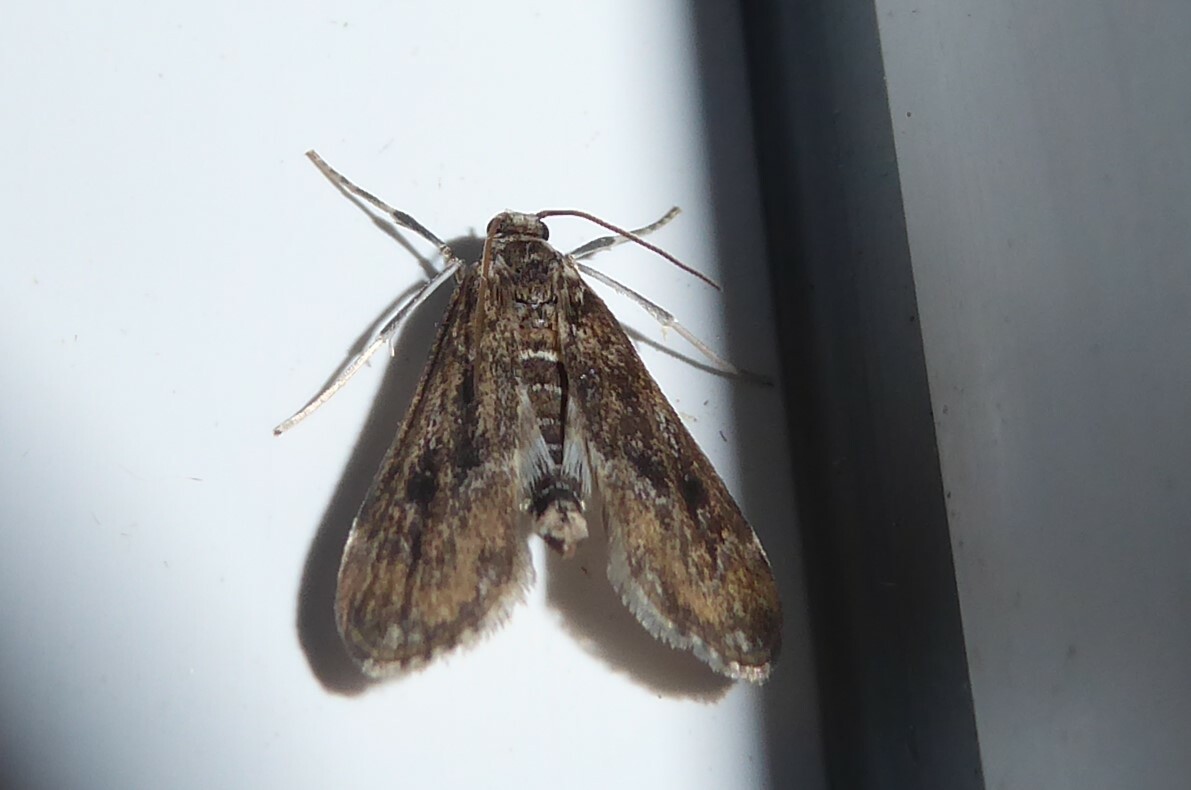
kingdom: Animalia
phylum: Arthropoda
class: Insecta
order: Lepidoptera
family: Crambidae
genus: Hygraula
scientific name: Hygraula nitens
